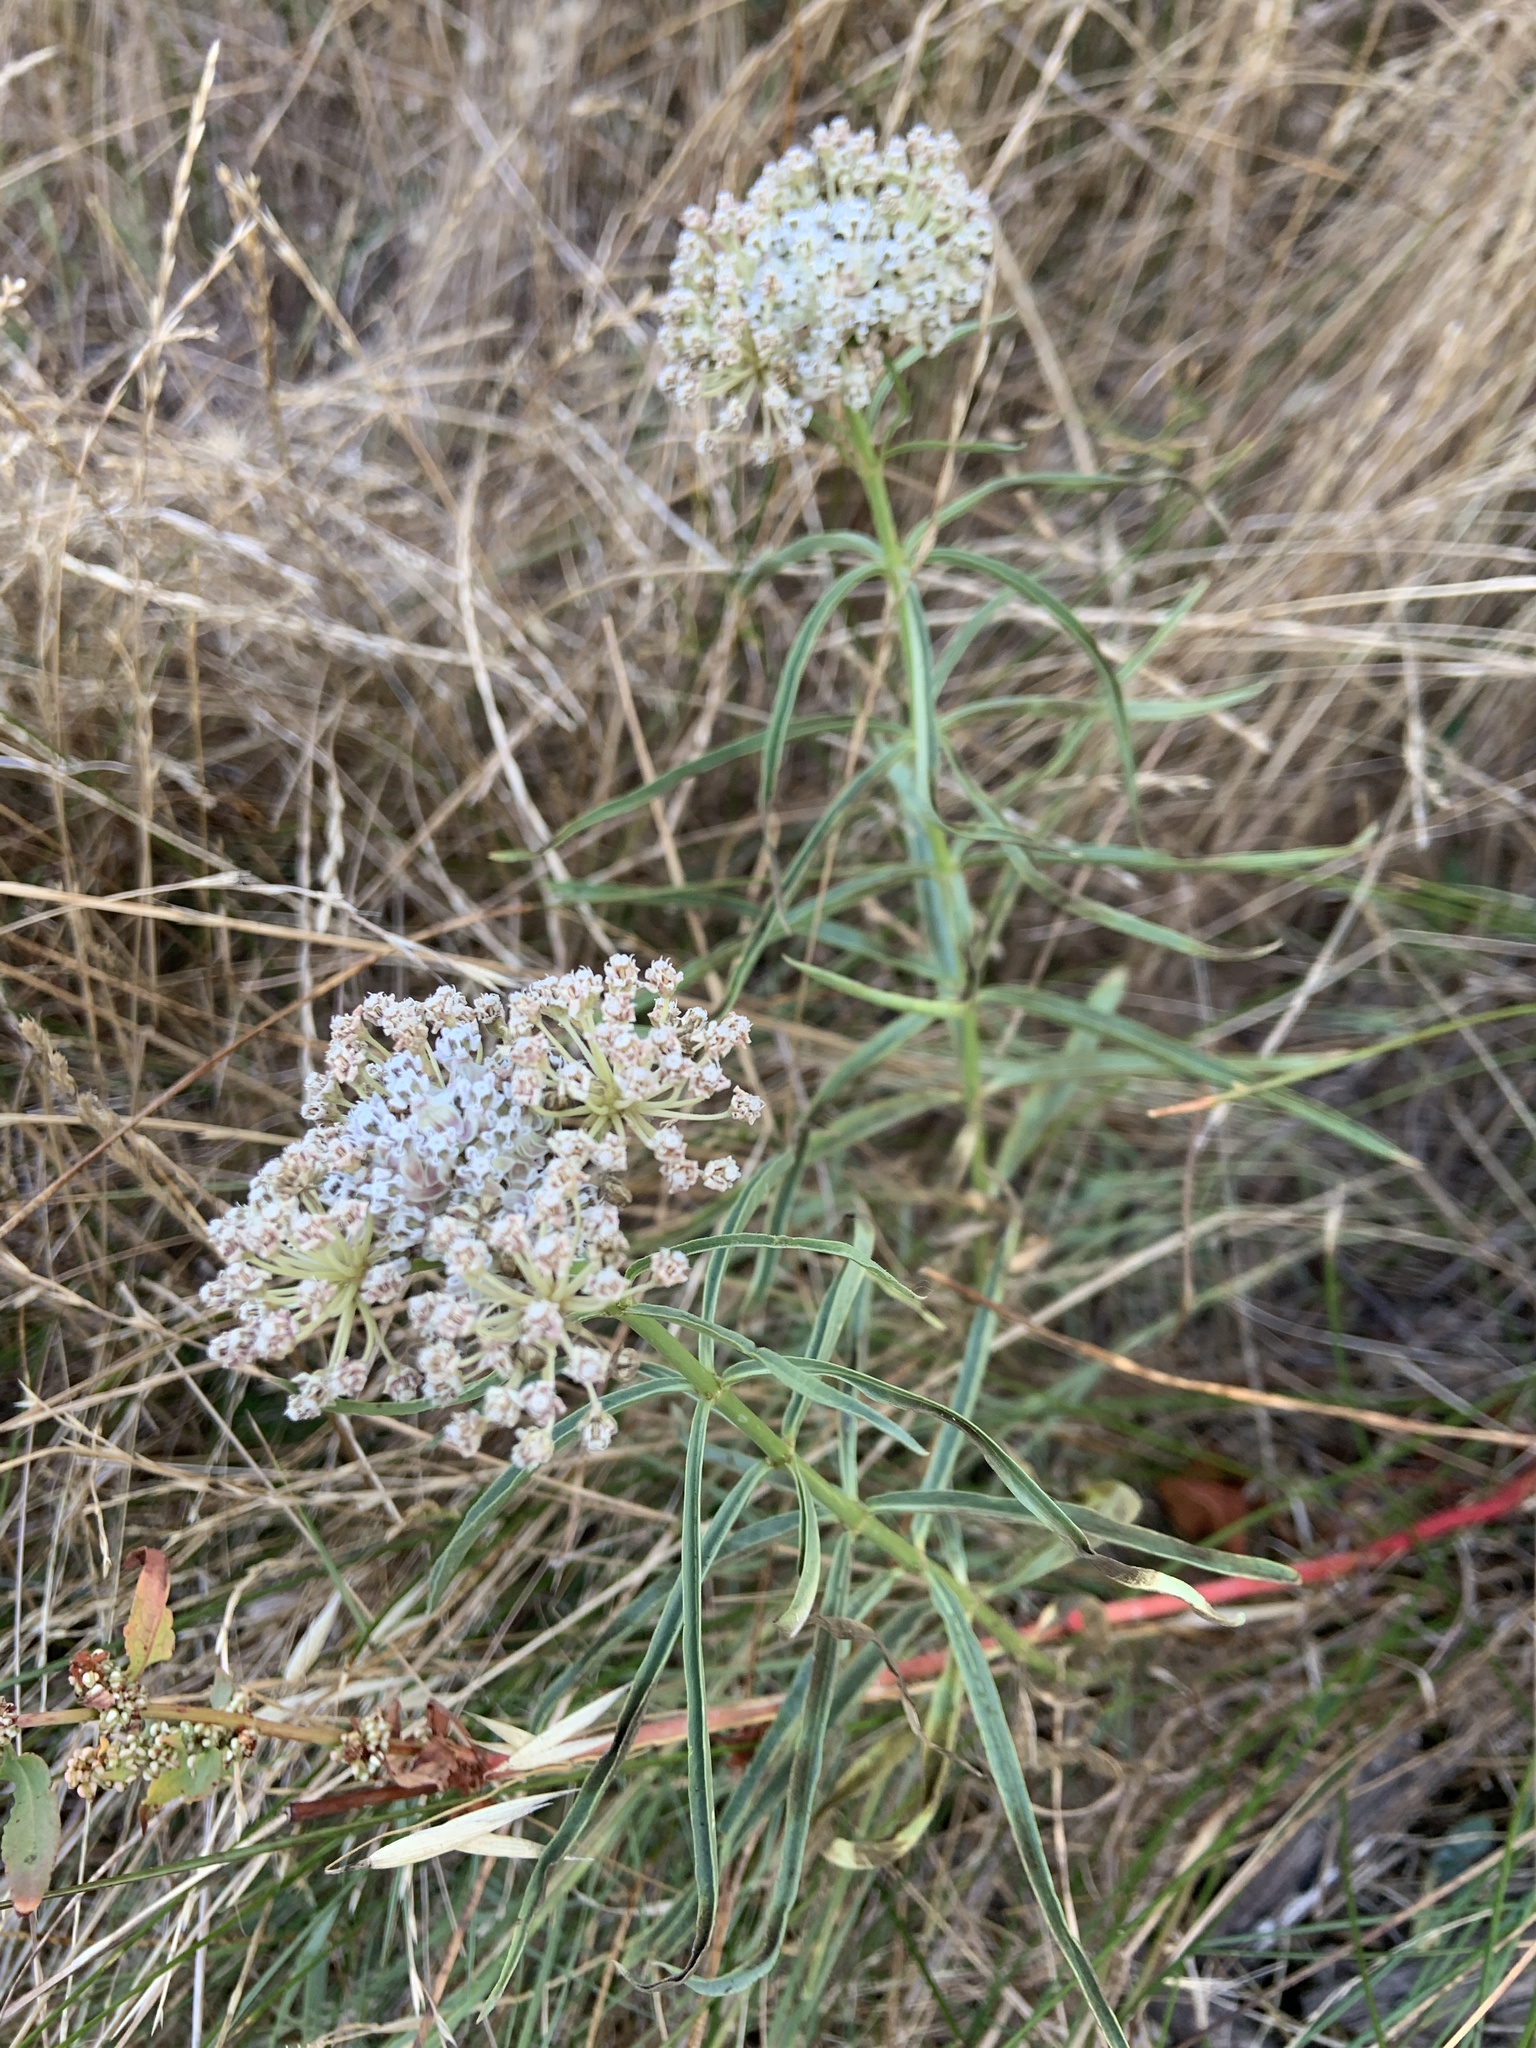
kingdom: Plantae
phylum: Tracheophyta
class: Magnoliopsida
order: Gentianales
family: Apocynaceae
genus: Asclepias
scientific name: Asclepias fascicularis
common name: Mexican milkweed
